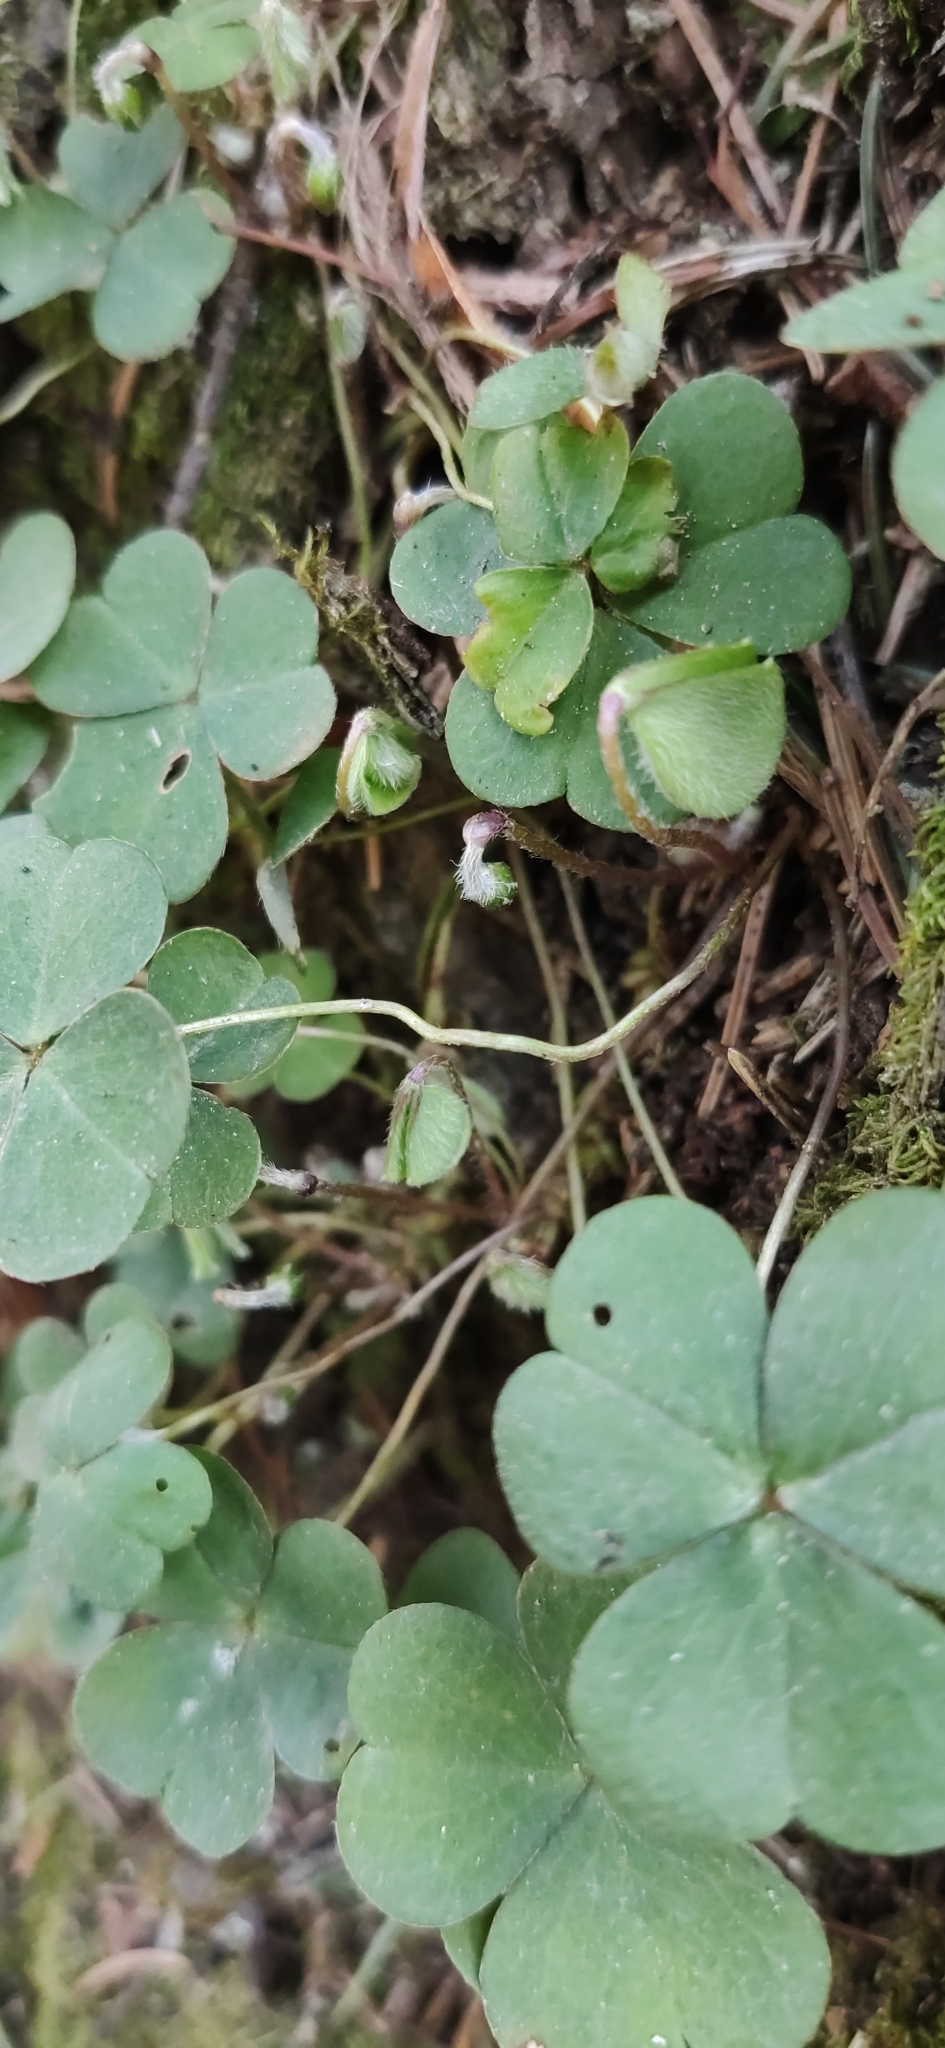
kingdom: Plantae
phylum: Tracheophyta
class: Magnoliopsida
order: Oxalidales
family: Oxalidaceae
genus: Oxalis
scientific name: Oxalis acetosella
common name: Wood-sorrel
